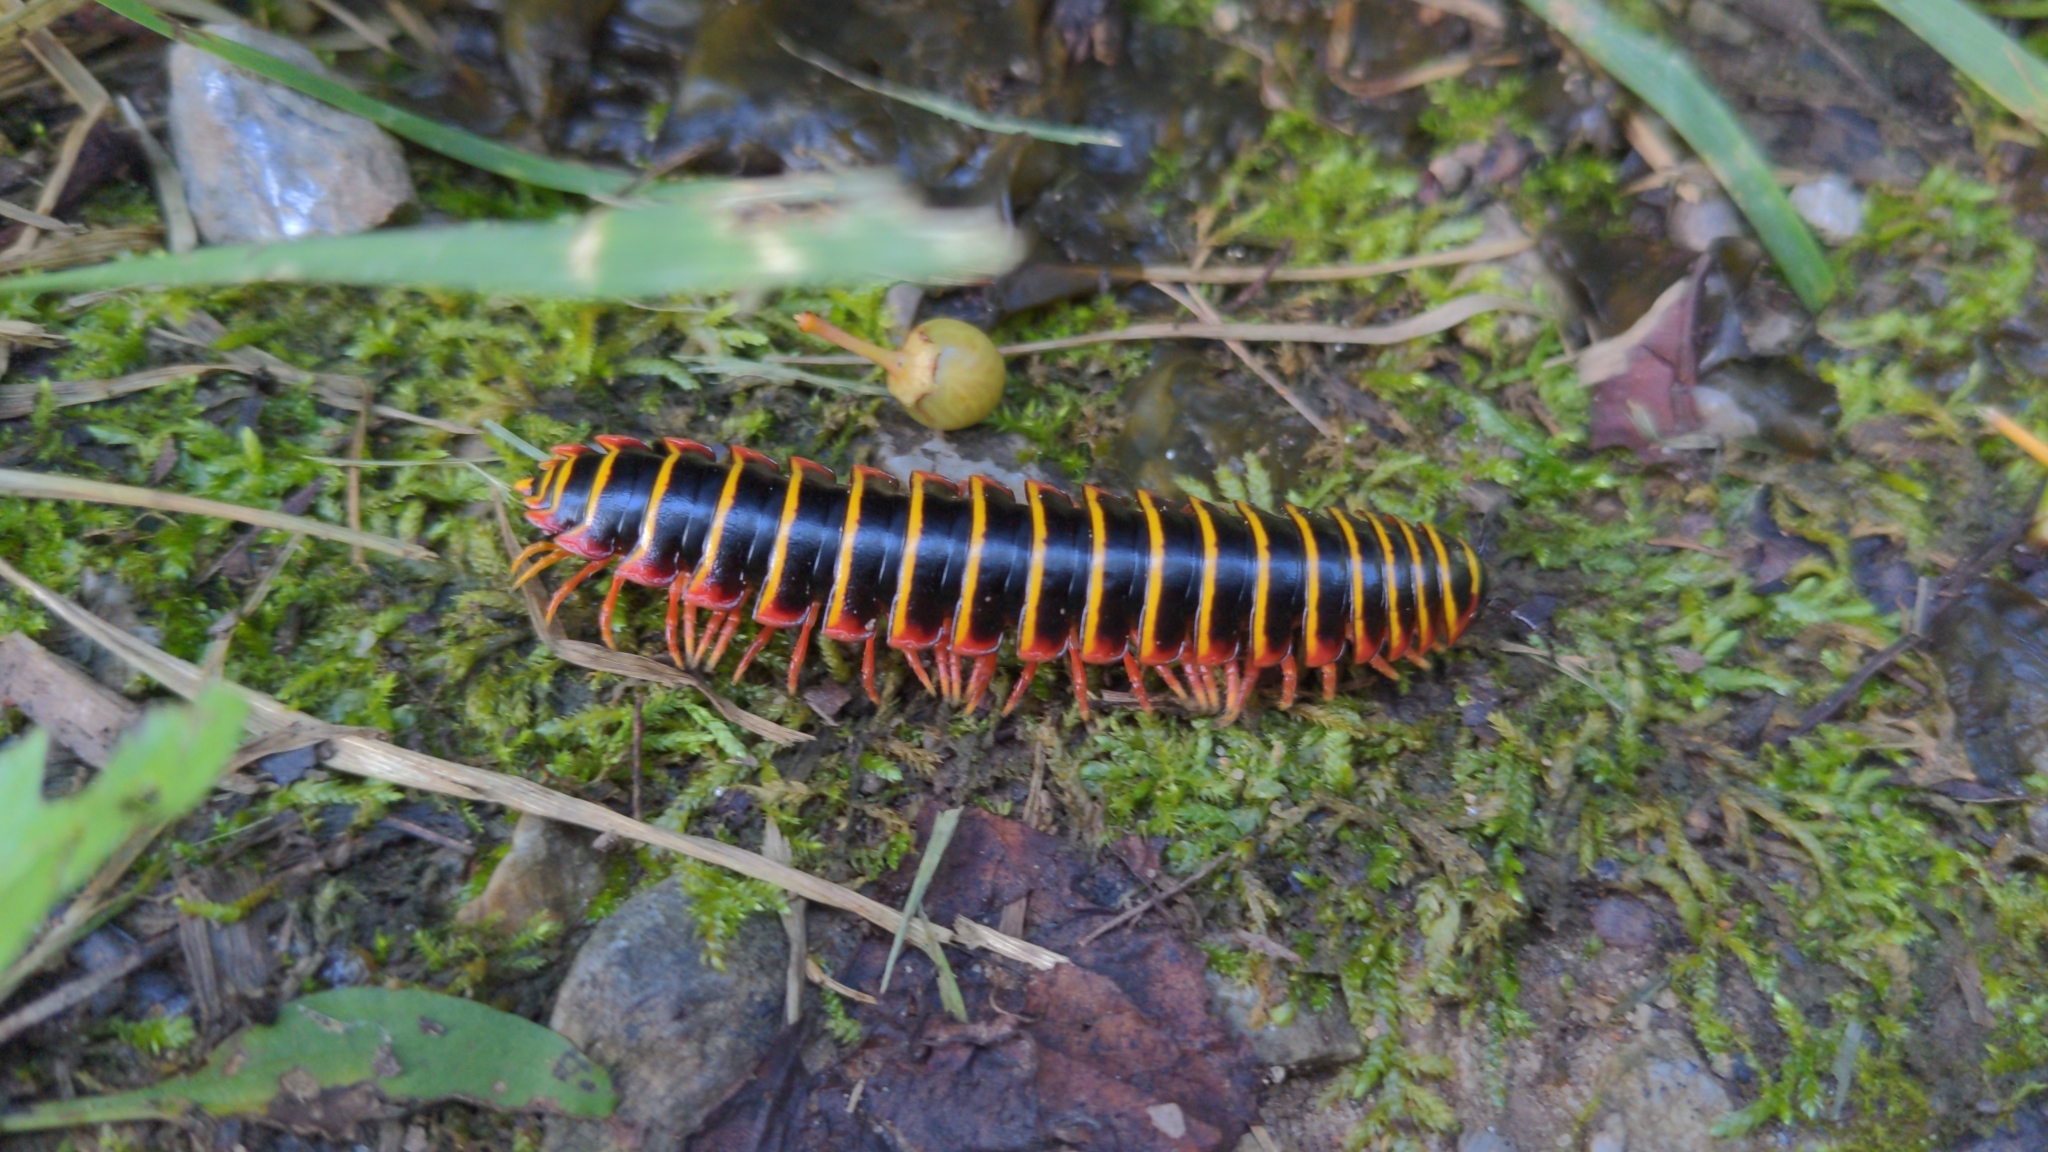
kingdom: Animalia
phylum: Arthropoda
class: Diplopoda
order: Polydesmida
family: Xystodesmidae
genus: Apheloria
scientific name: Apheloria virginiensis
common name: Black-and-gold flat millipede
